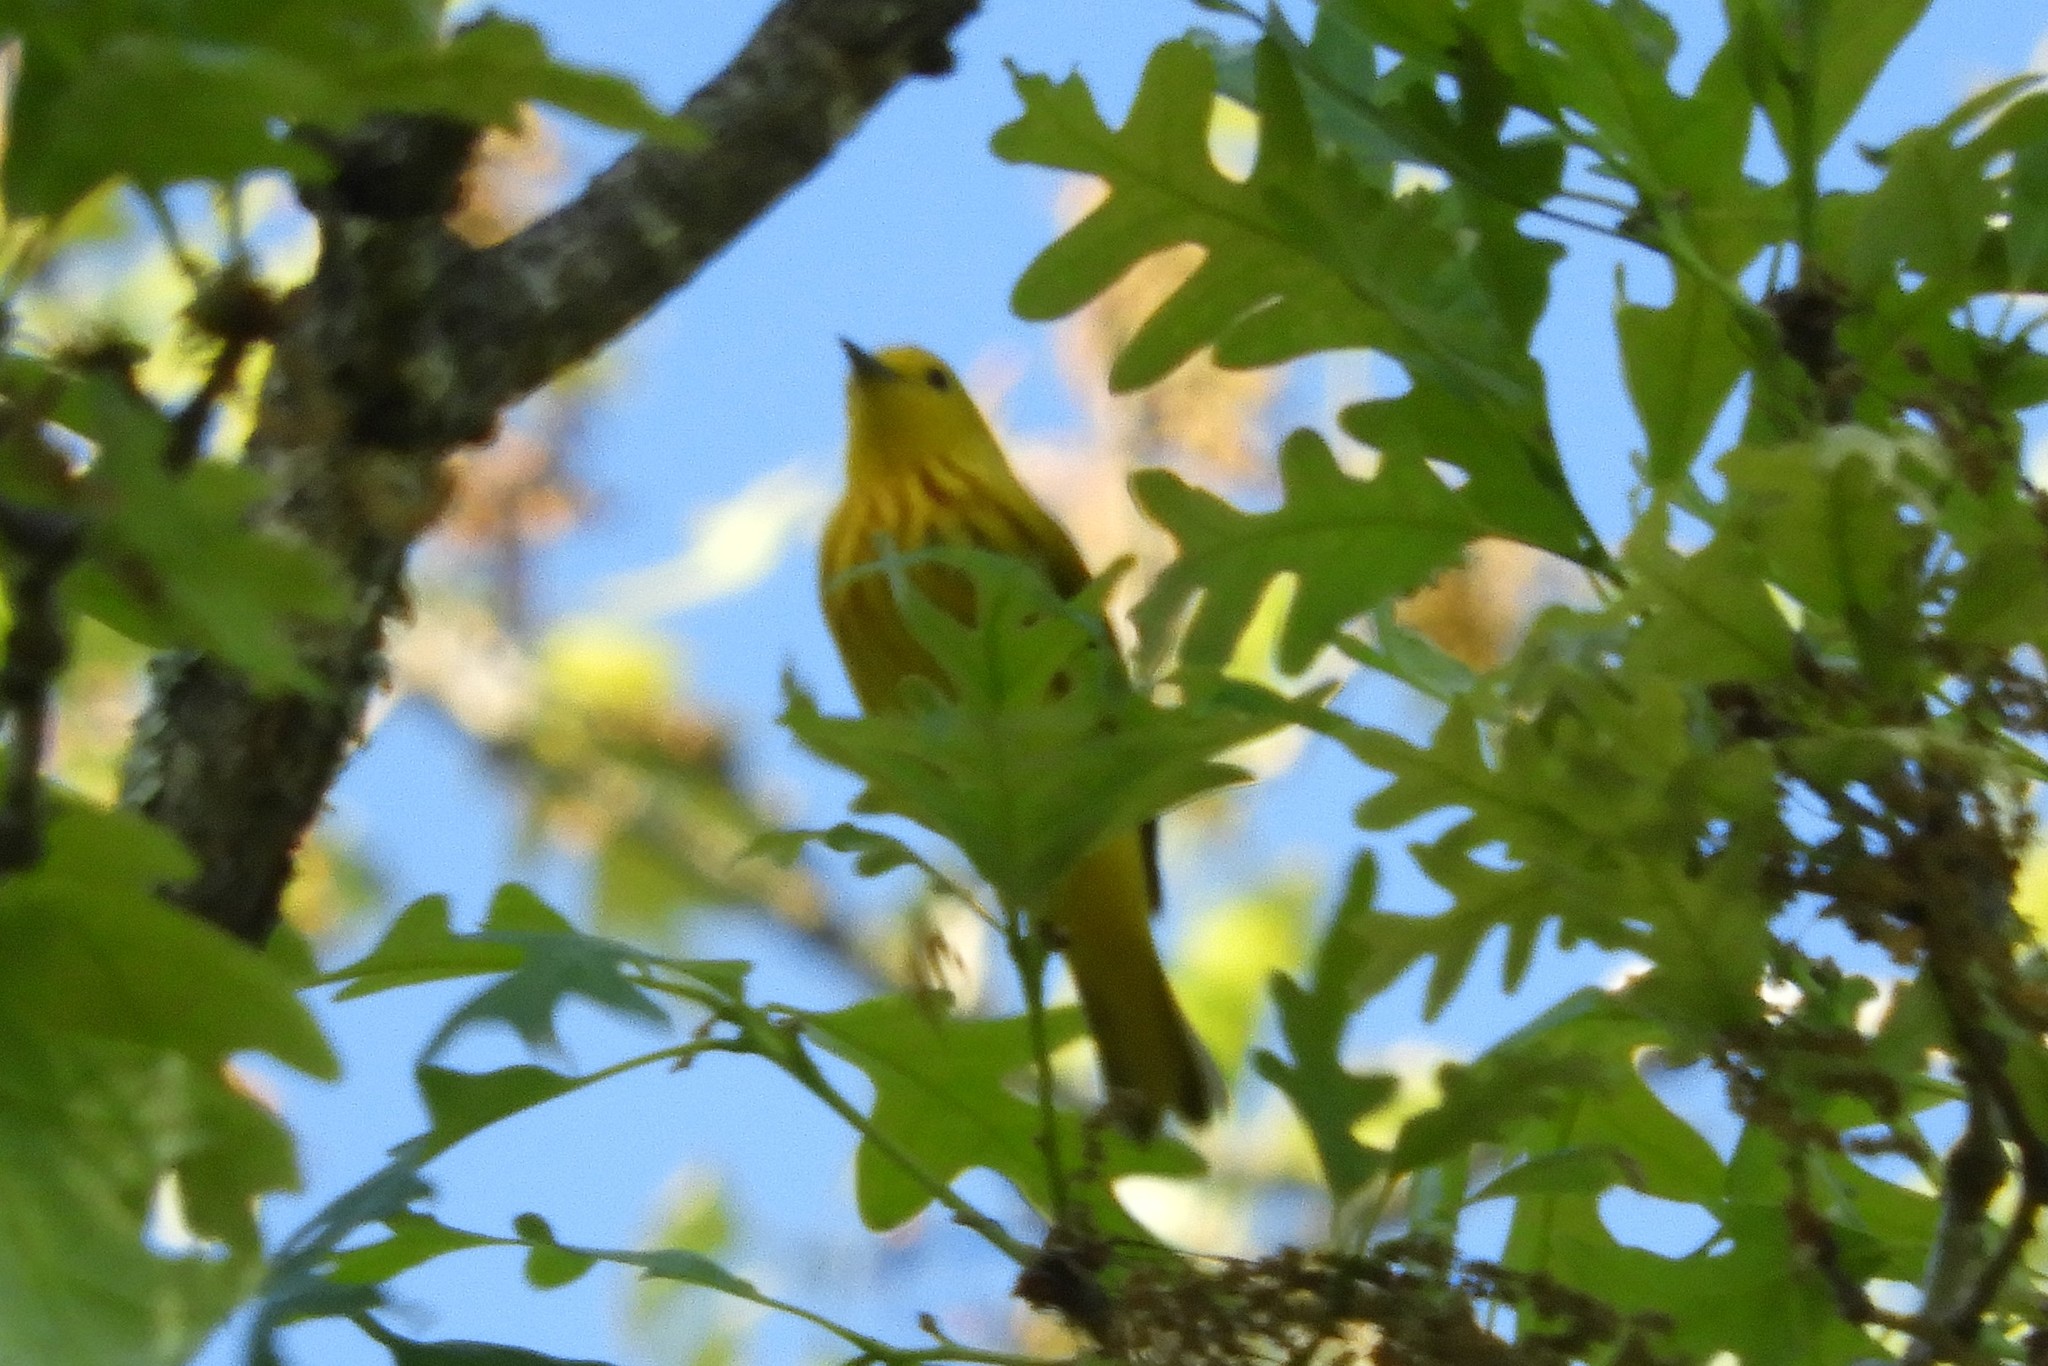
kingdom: Animalia
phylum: Chordata
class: Aves
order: Passeriformes
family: Parulidae
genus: Setophaga
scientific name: Setophaga petechia
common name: Yellow warbler
